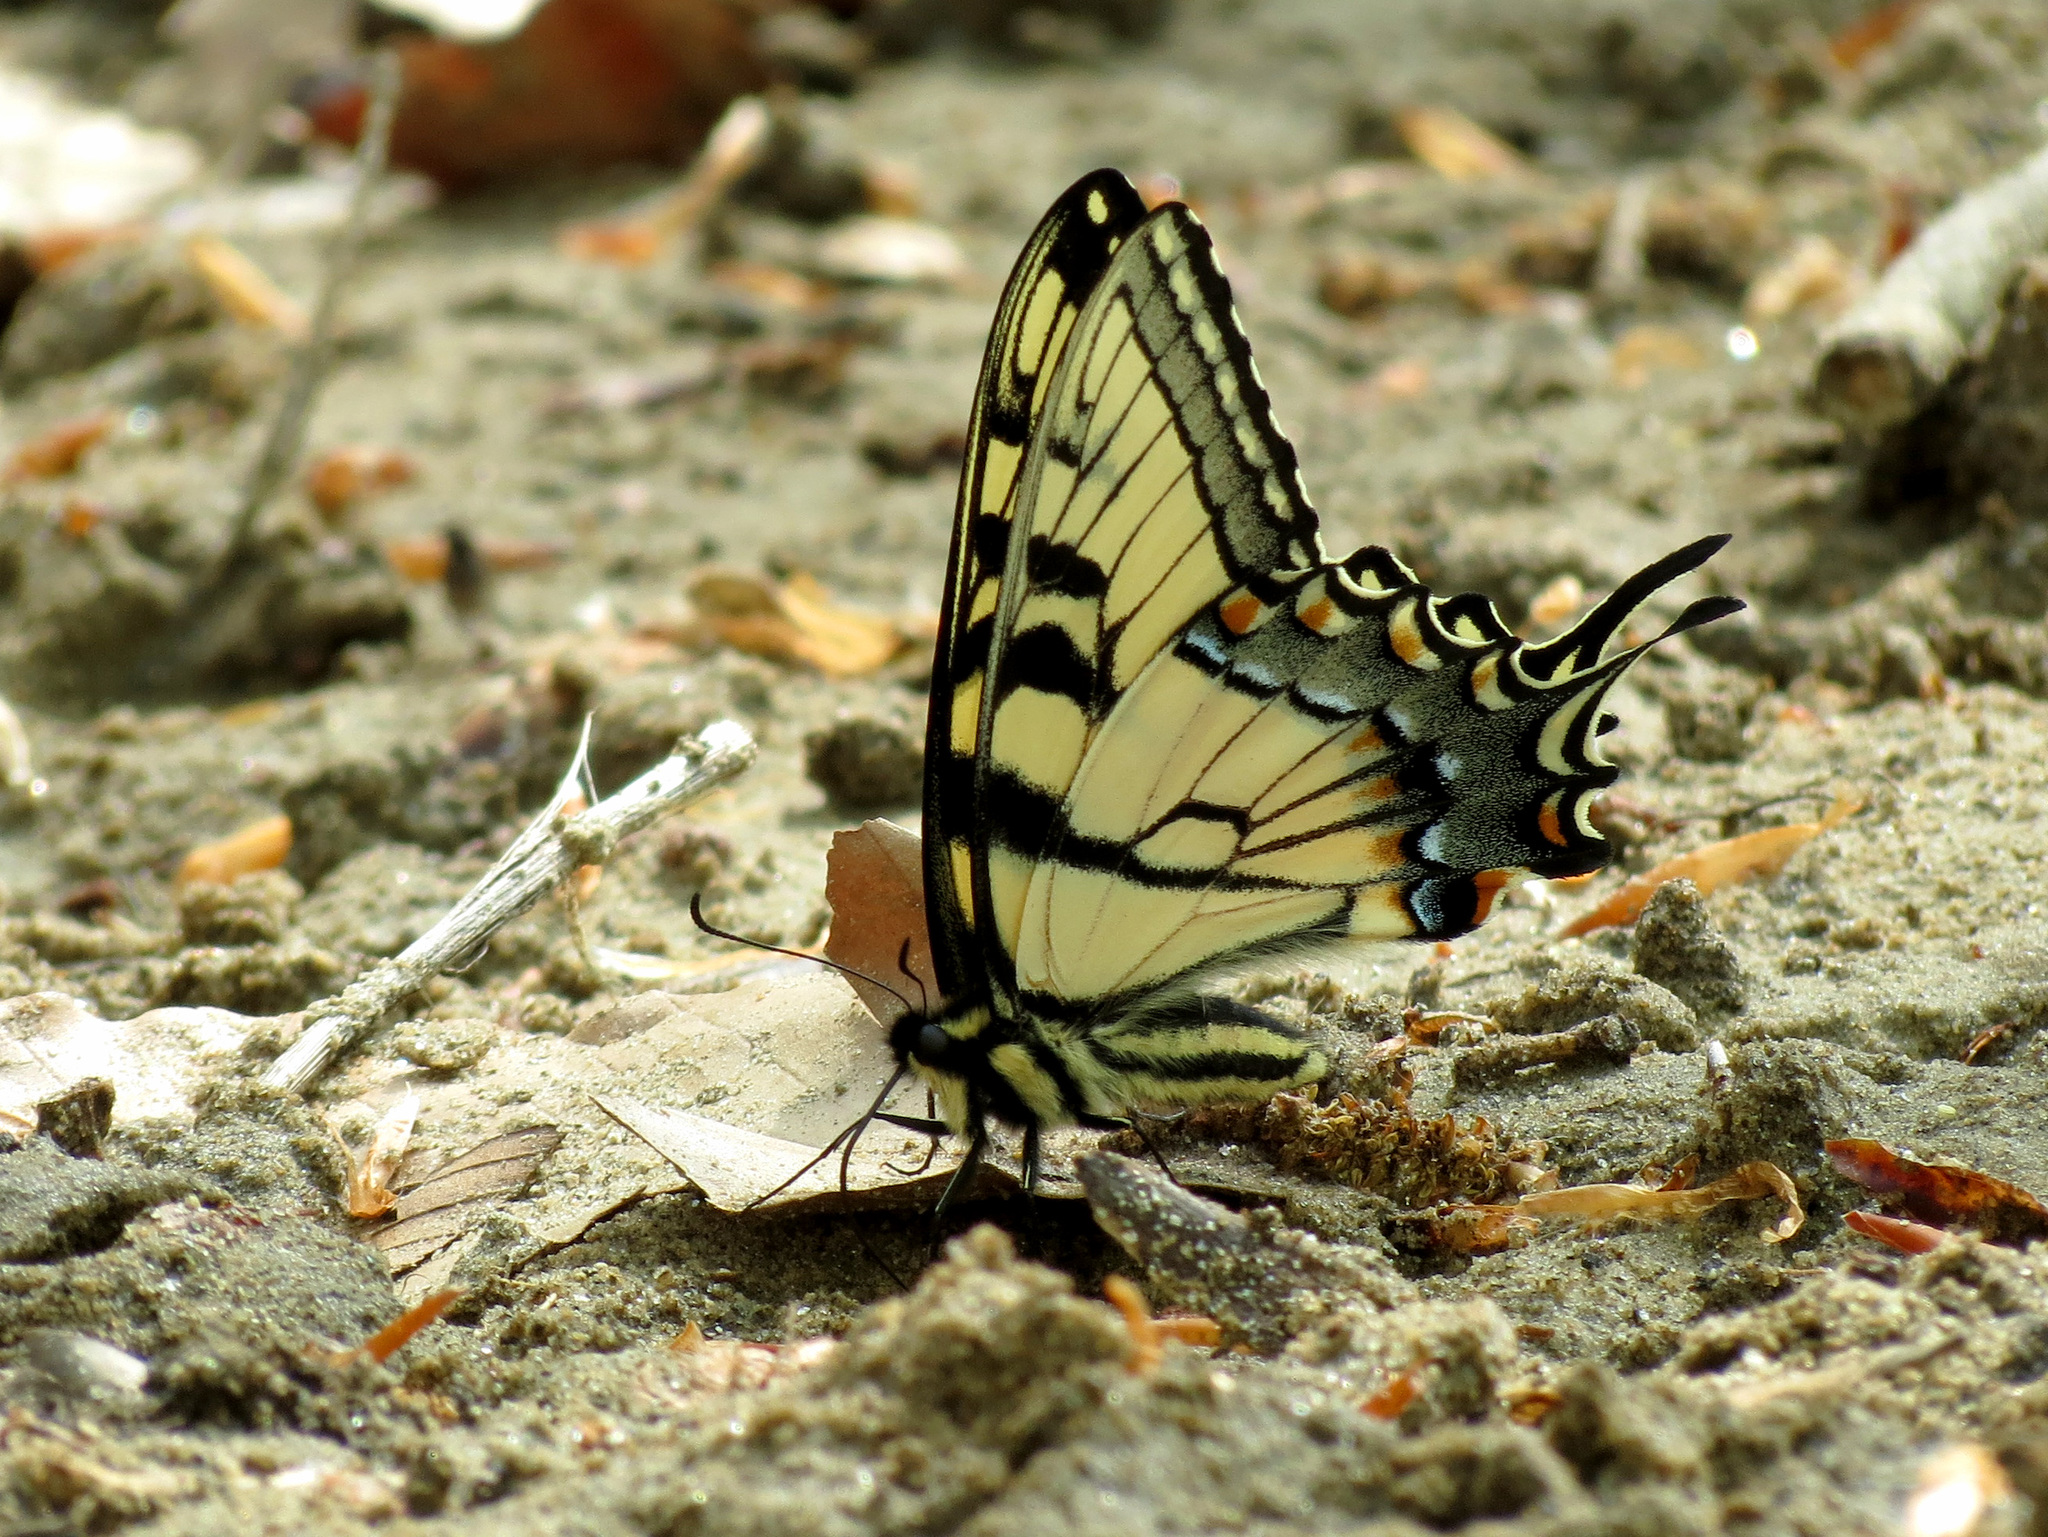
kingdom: Animalia
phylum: Arthropoda
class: Insecta
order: Lepidoptera
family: Papilionidae
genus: Papilio
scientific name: Papilio glaucus
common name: Tiger swallowtail
